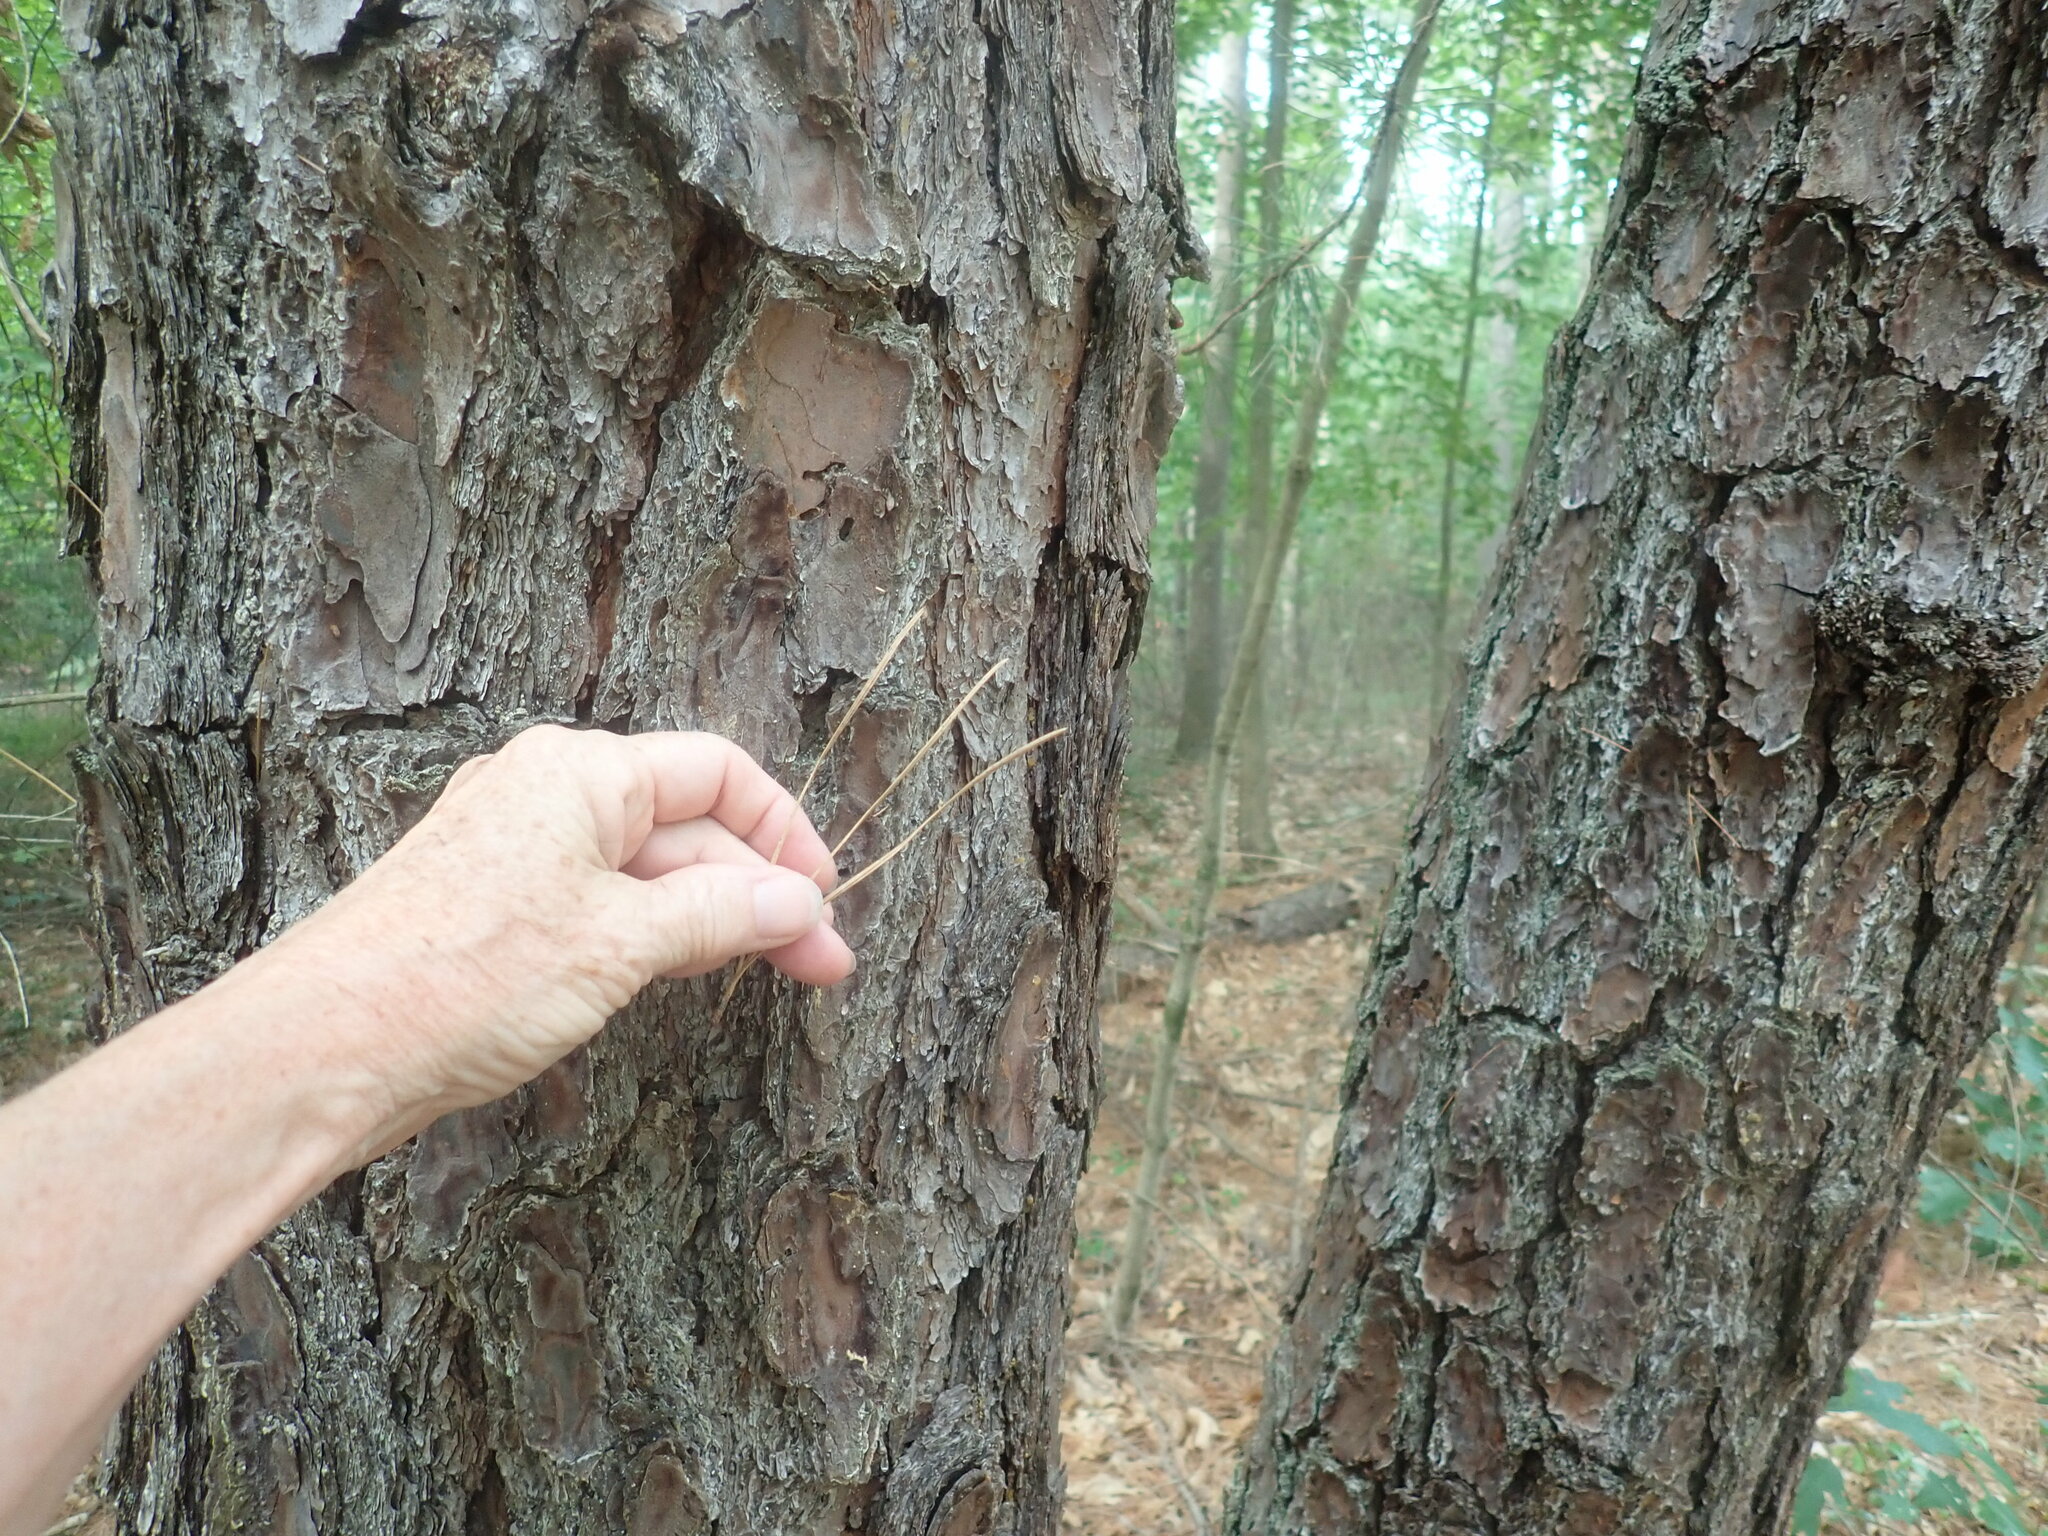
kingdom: Plantae
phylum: Tracheophyta
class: Pinopsida
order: Pinales
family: Pinaceae
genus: Pinus
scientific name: Pinus rigida
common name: Pitch pine
